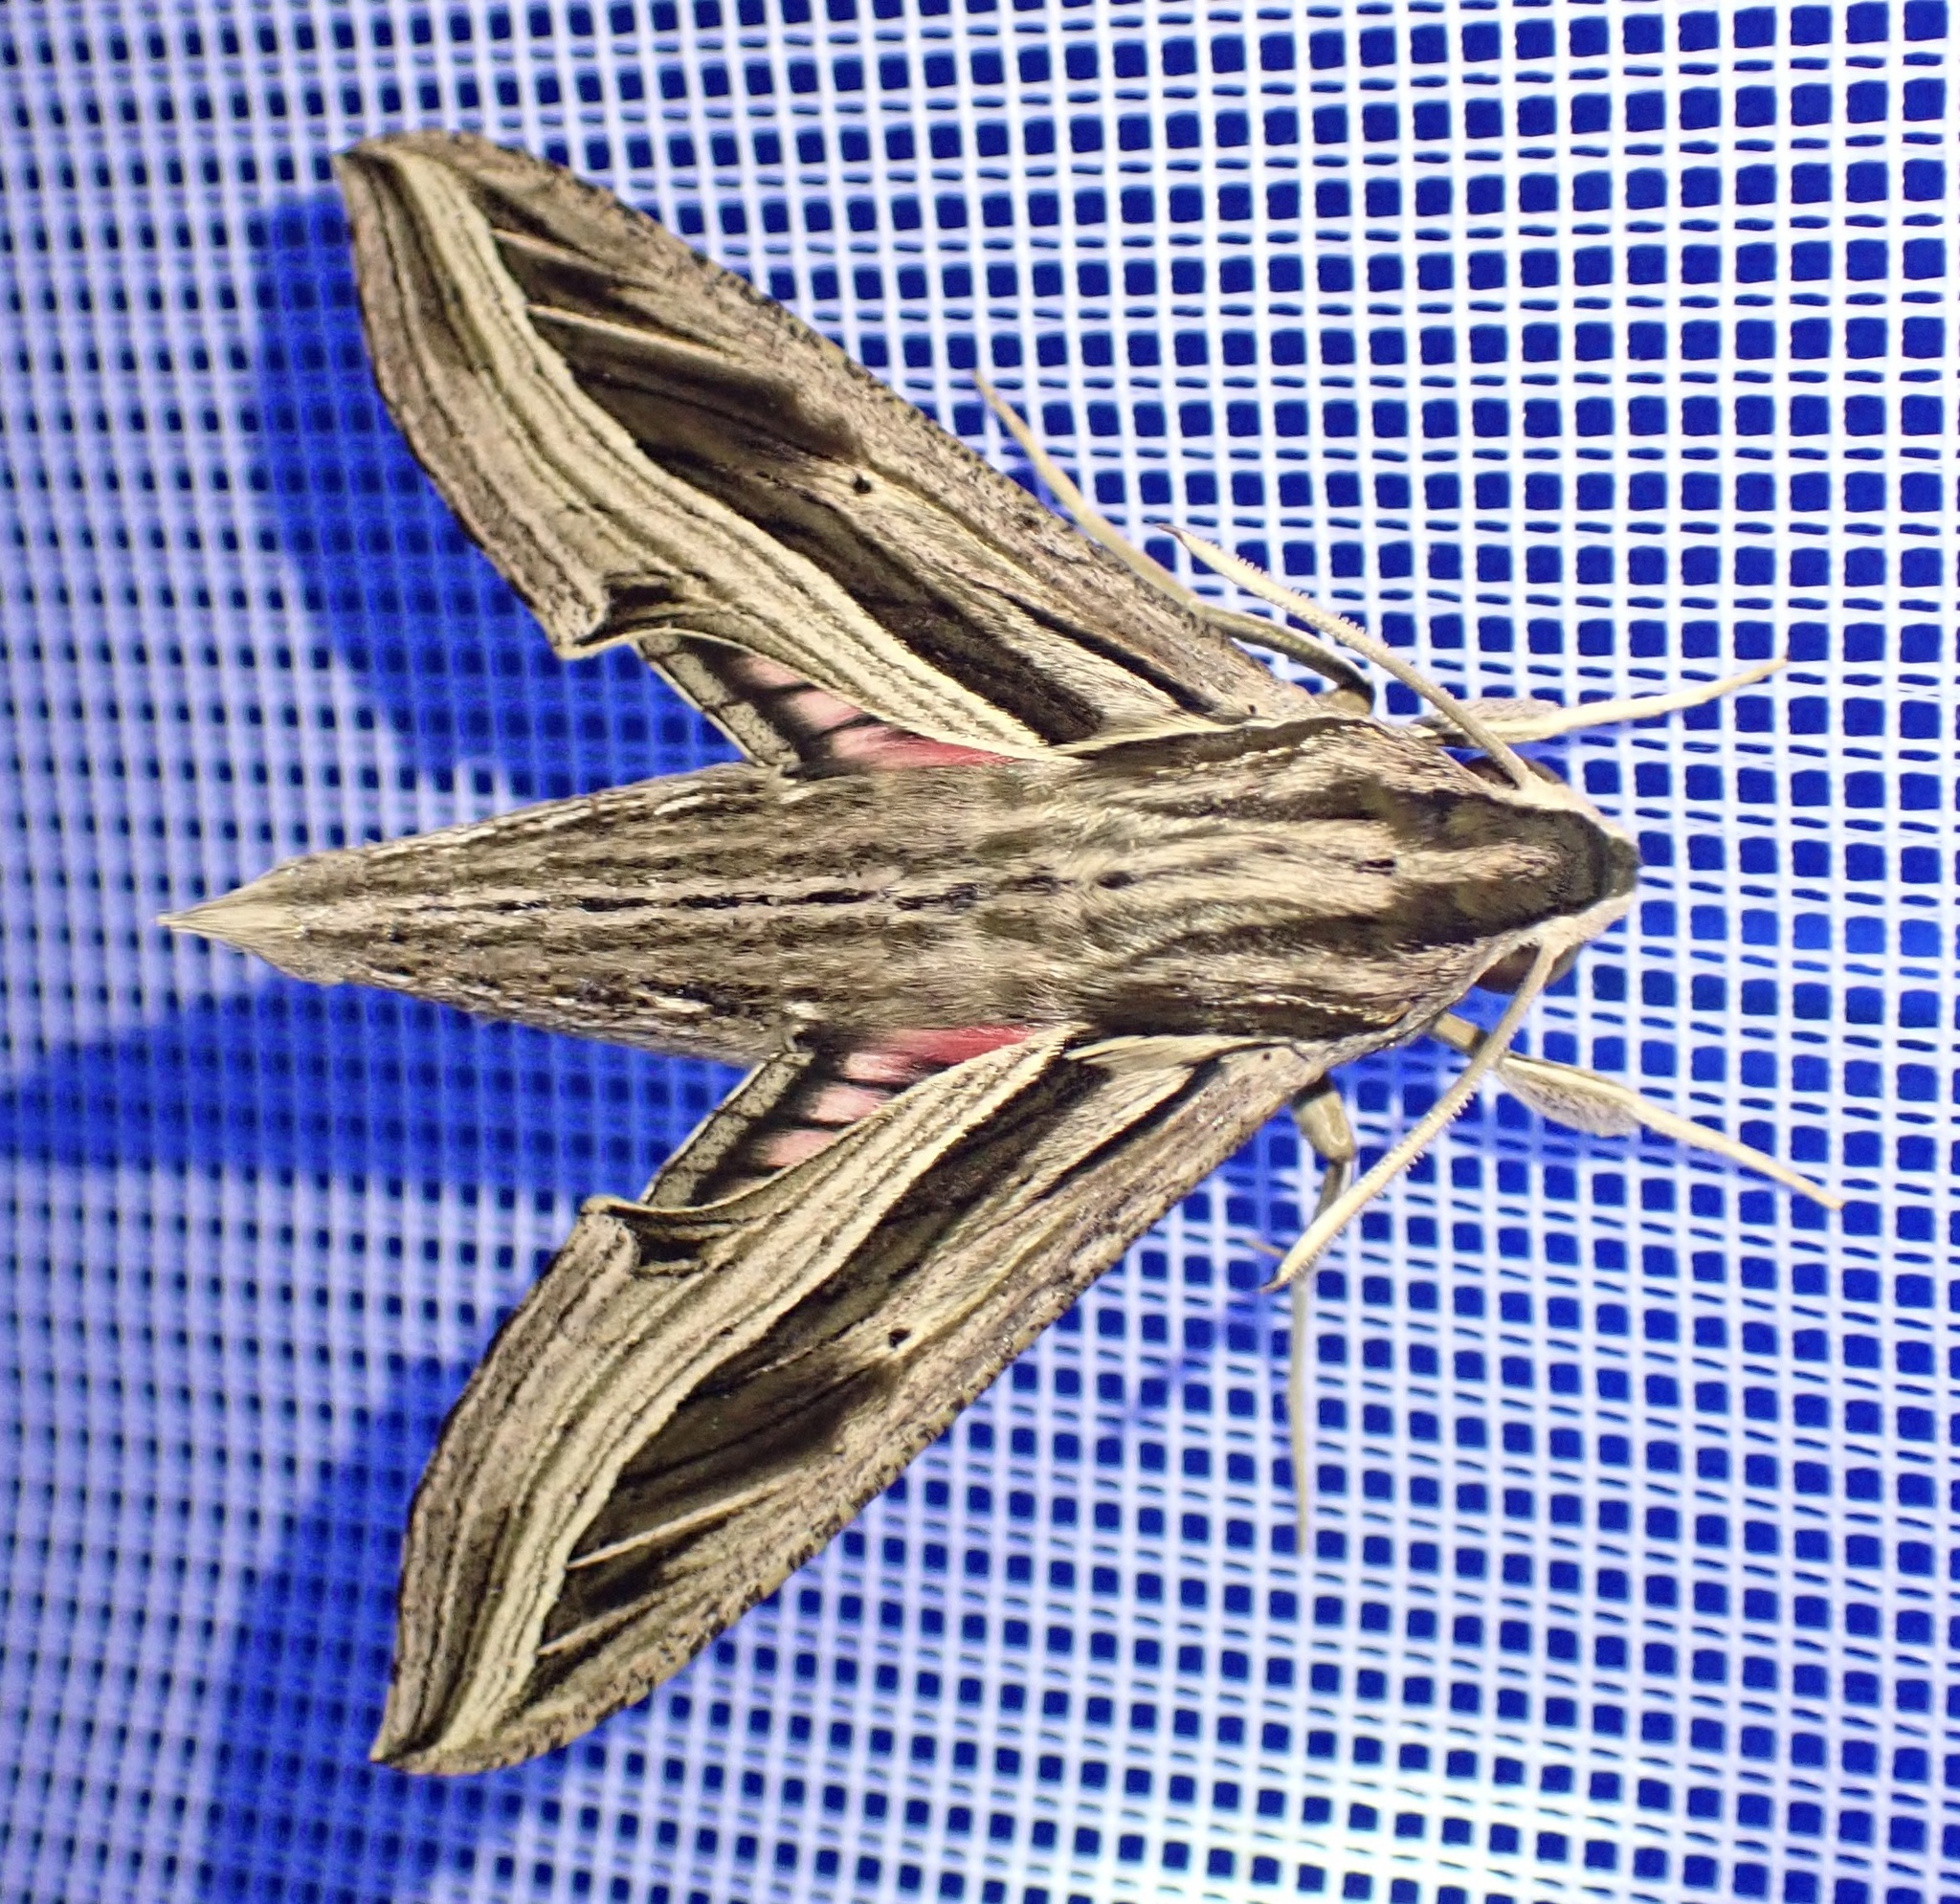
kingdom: Animalia
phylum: Arthropoda
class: Insecta
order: Lepidoptera
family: Sphingidae
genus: Hippotion
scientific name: Hippotion aporodes
